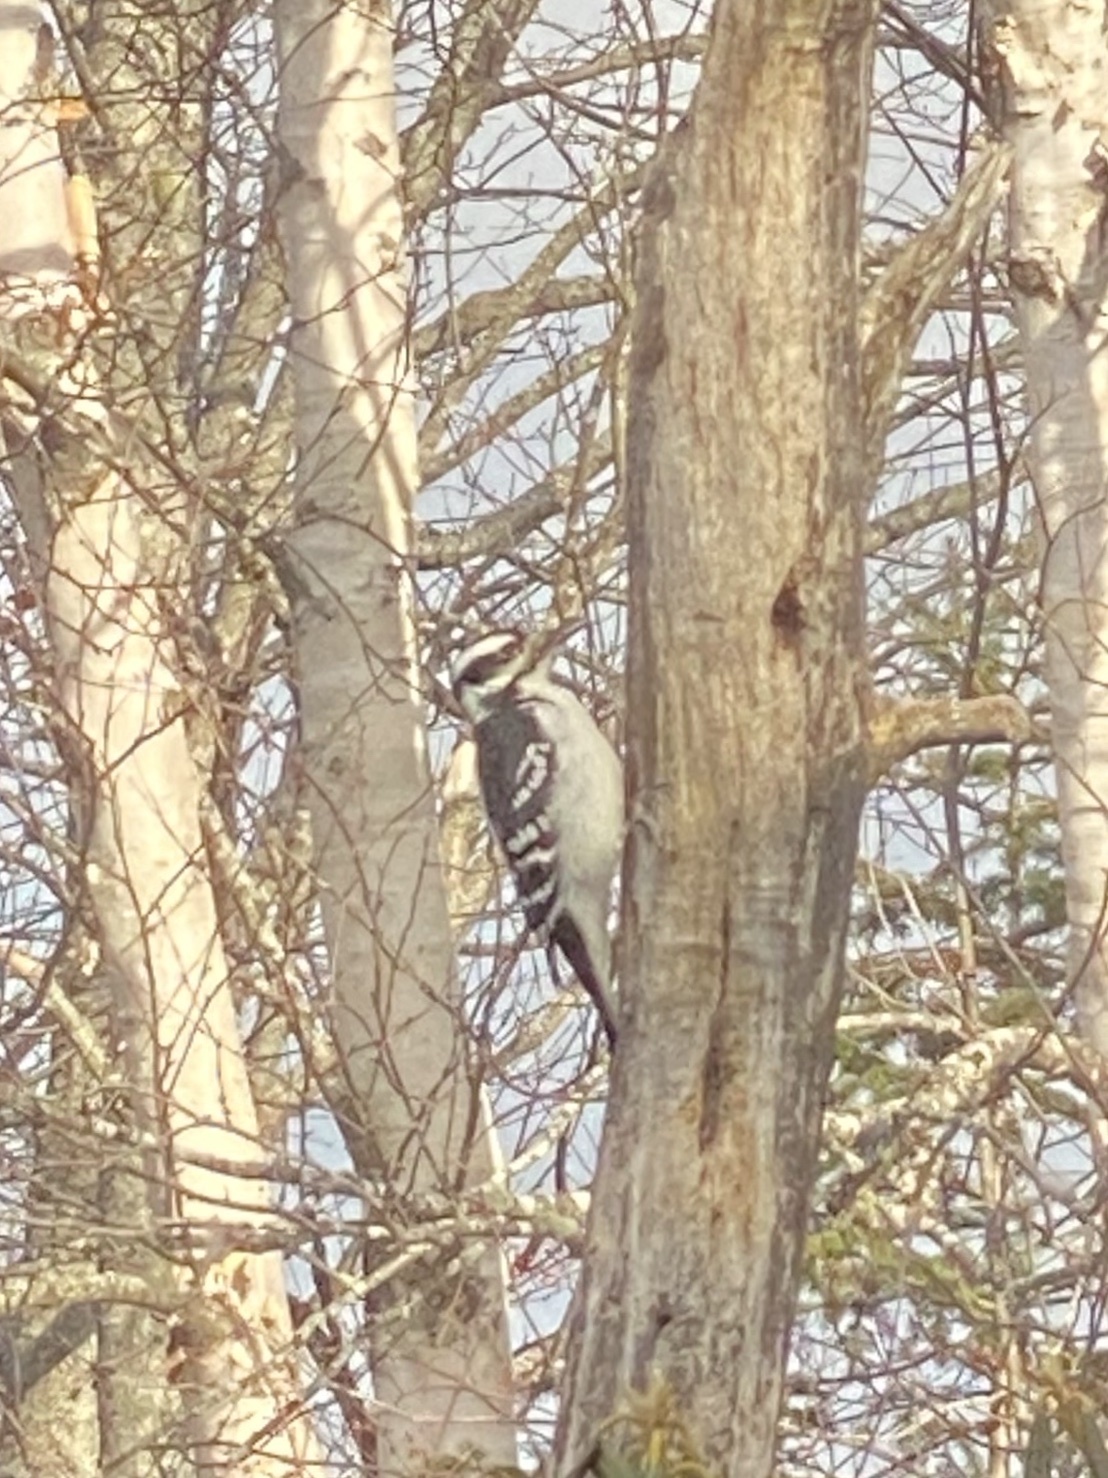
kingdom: Animalia
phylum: Chordata
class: Aves
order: Piciformes
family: Picidae
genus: Leuconotopicus
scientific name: Leuconotopicus villosus
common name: Hairy woodpecker
